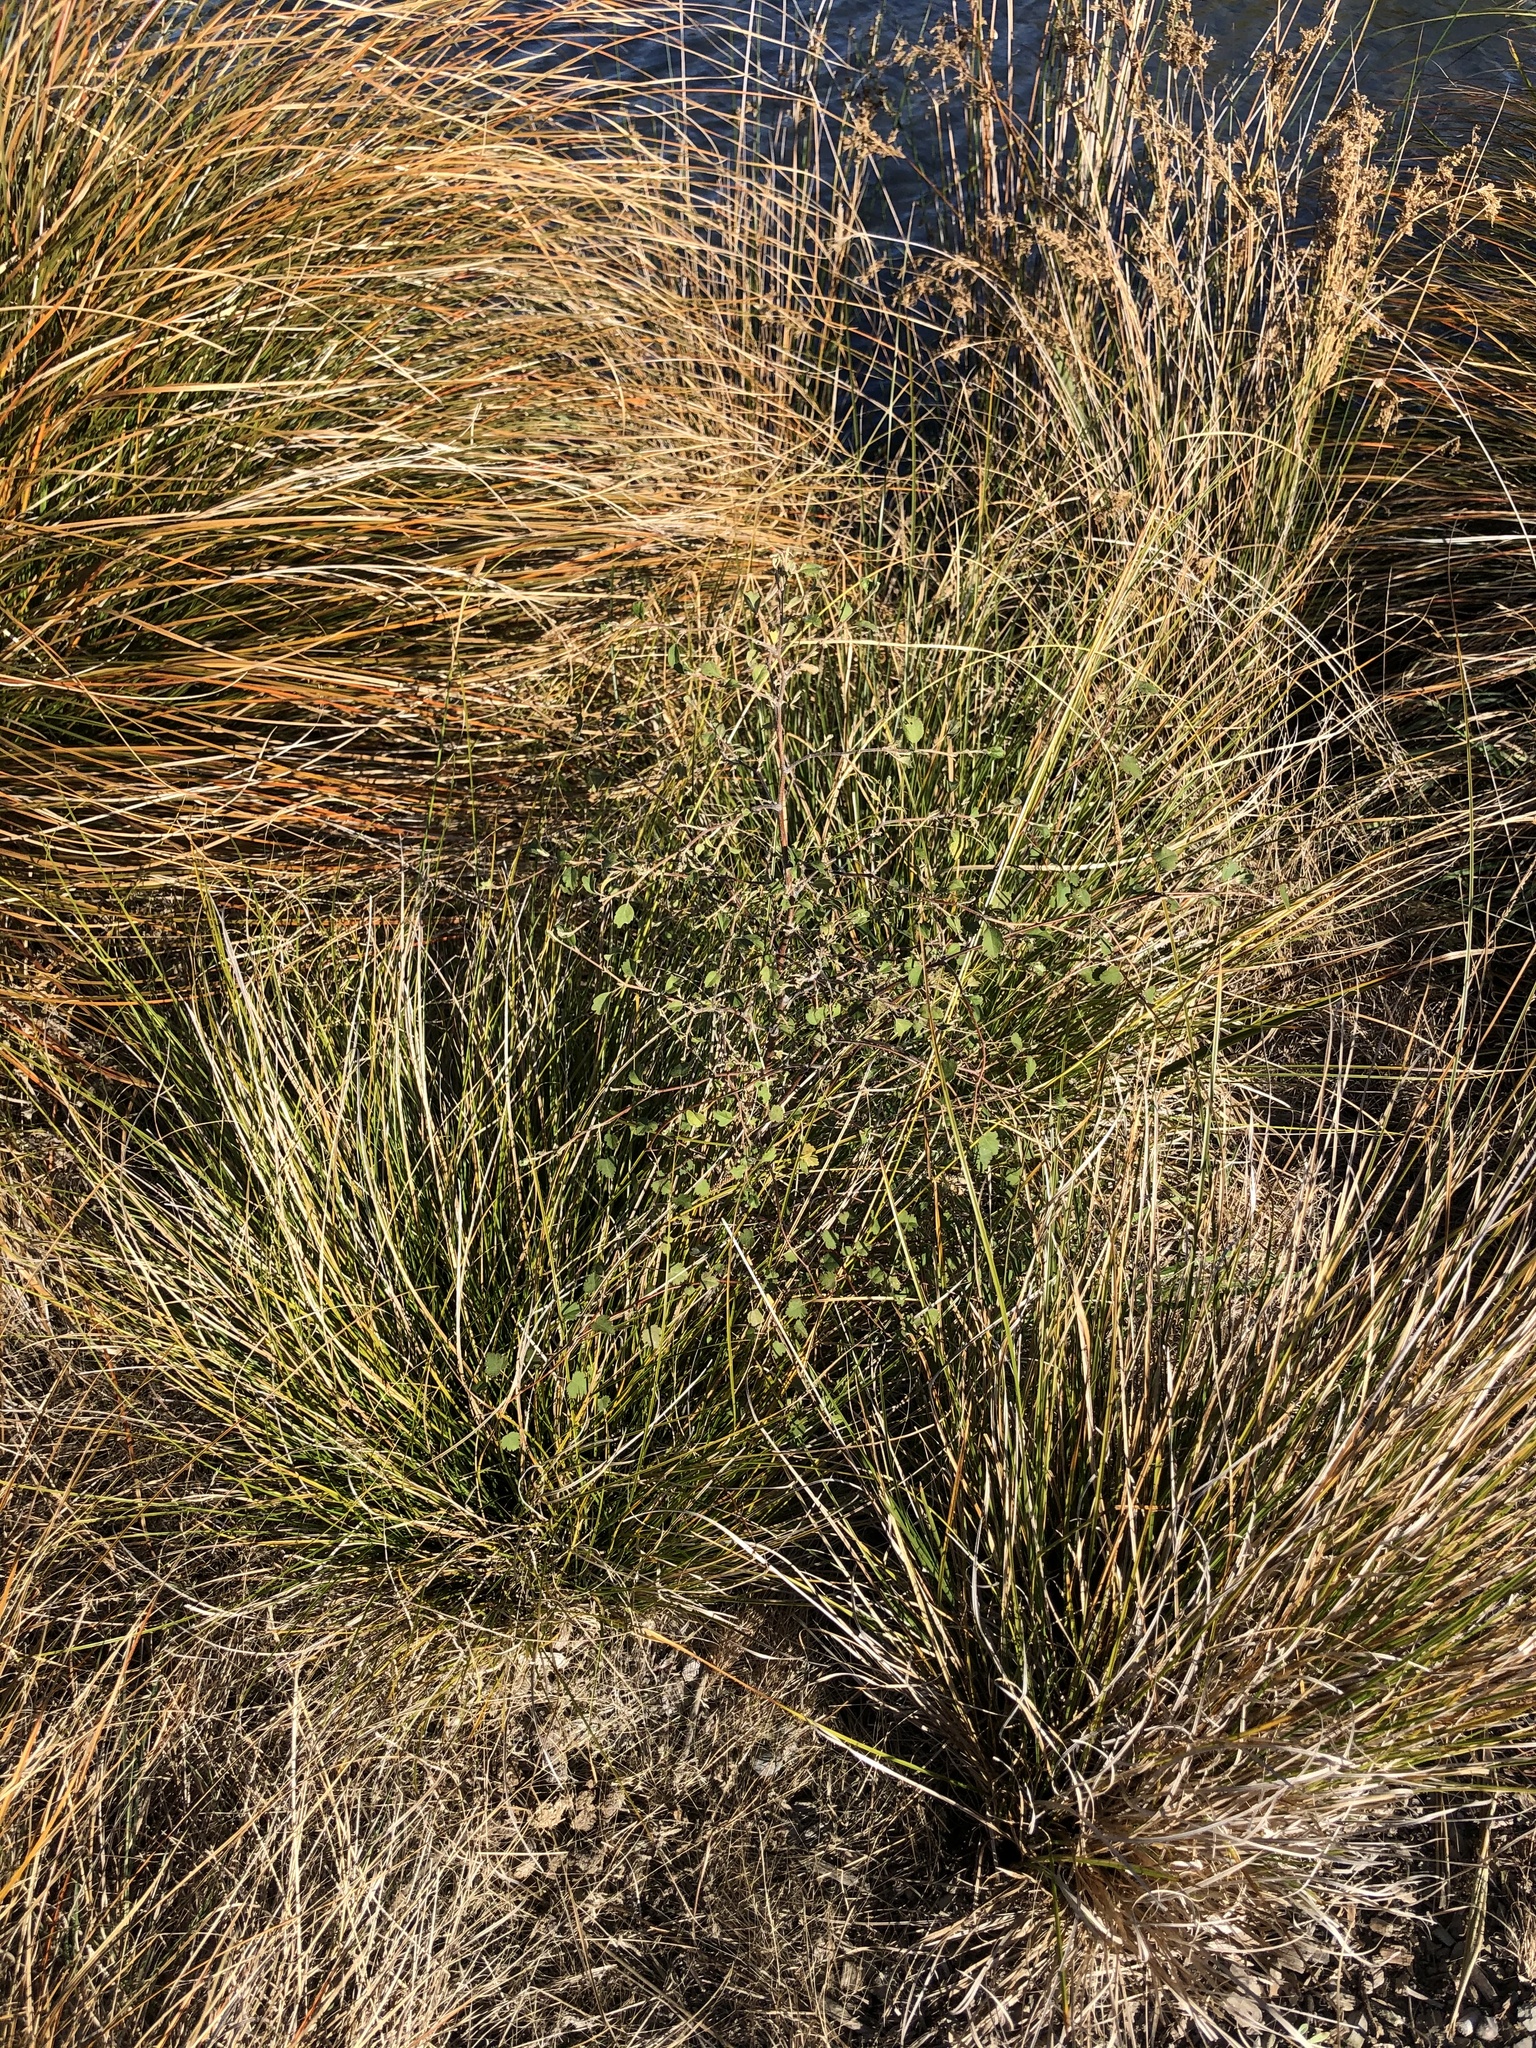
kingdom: Plantae
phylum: Tracheophyta
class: Magnoliopsida
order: Malvales
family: Malvaceae
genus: Plagianthus
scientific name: Plagianthus regius
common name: Manatu
